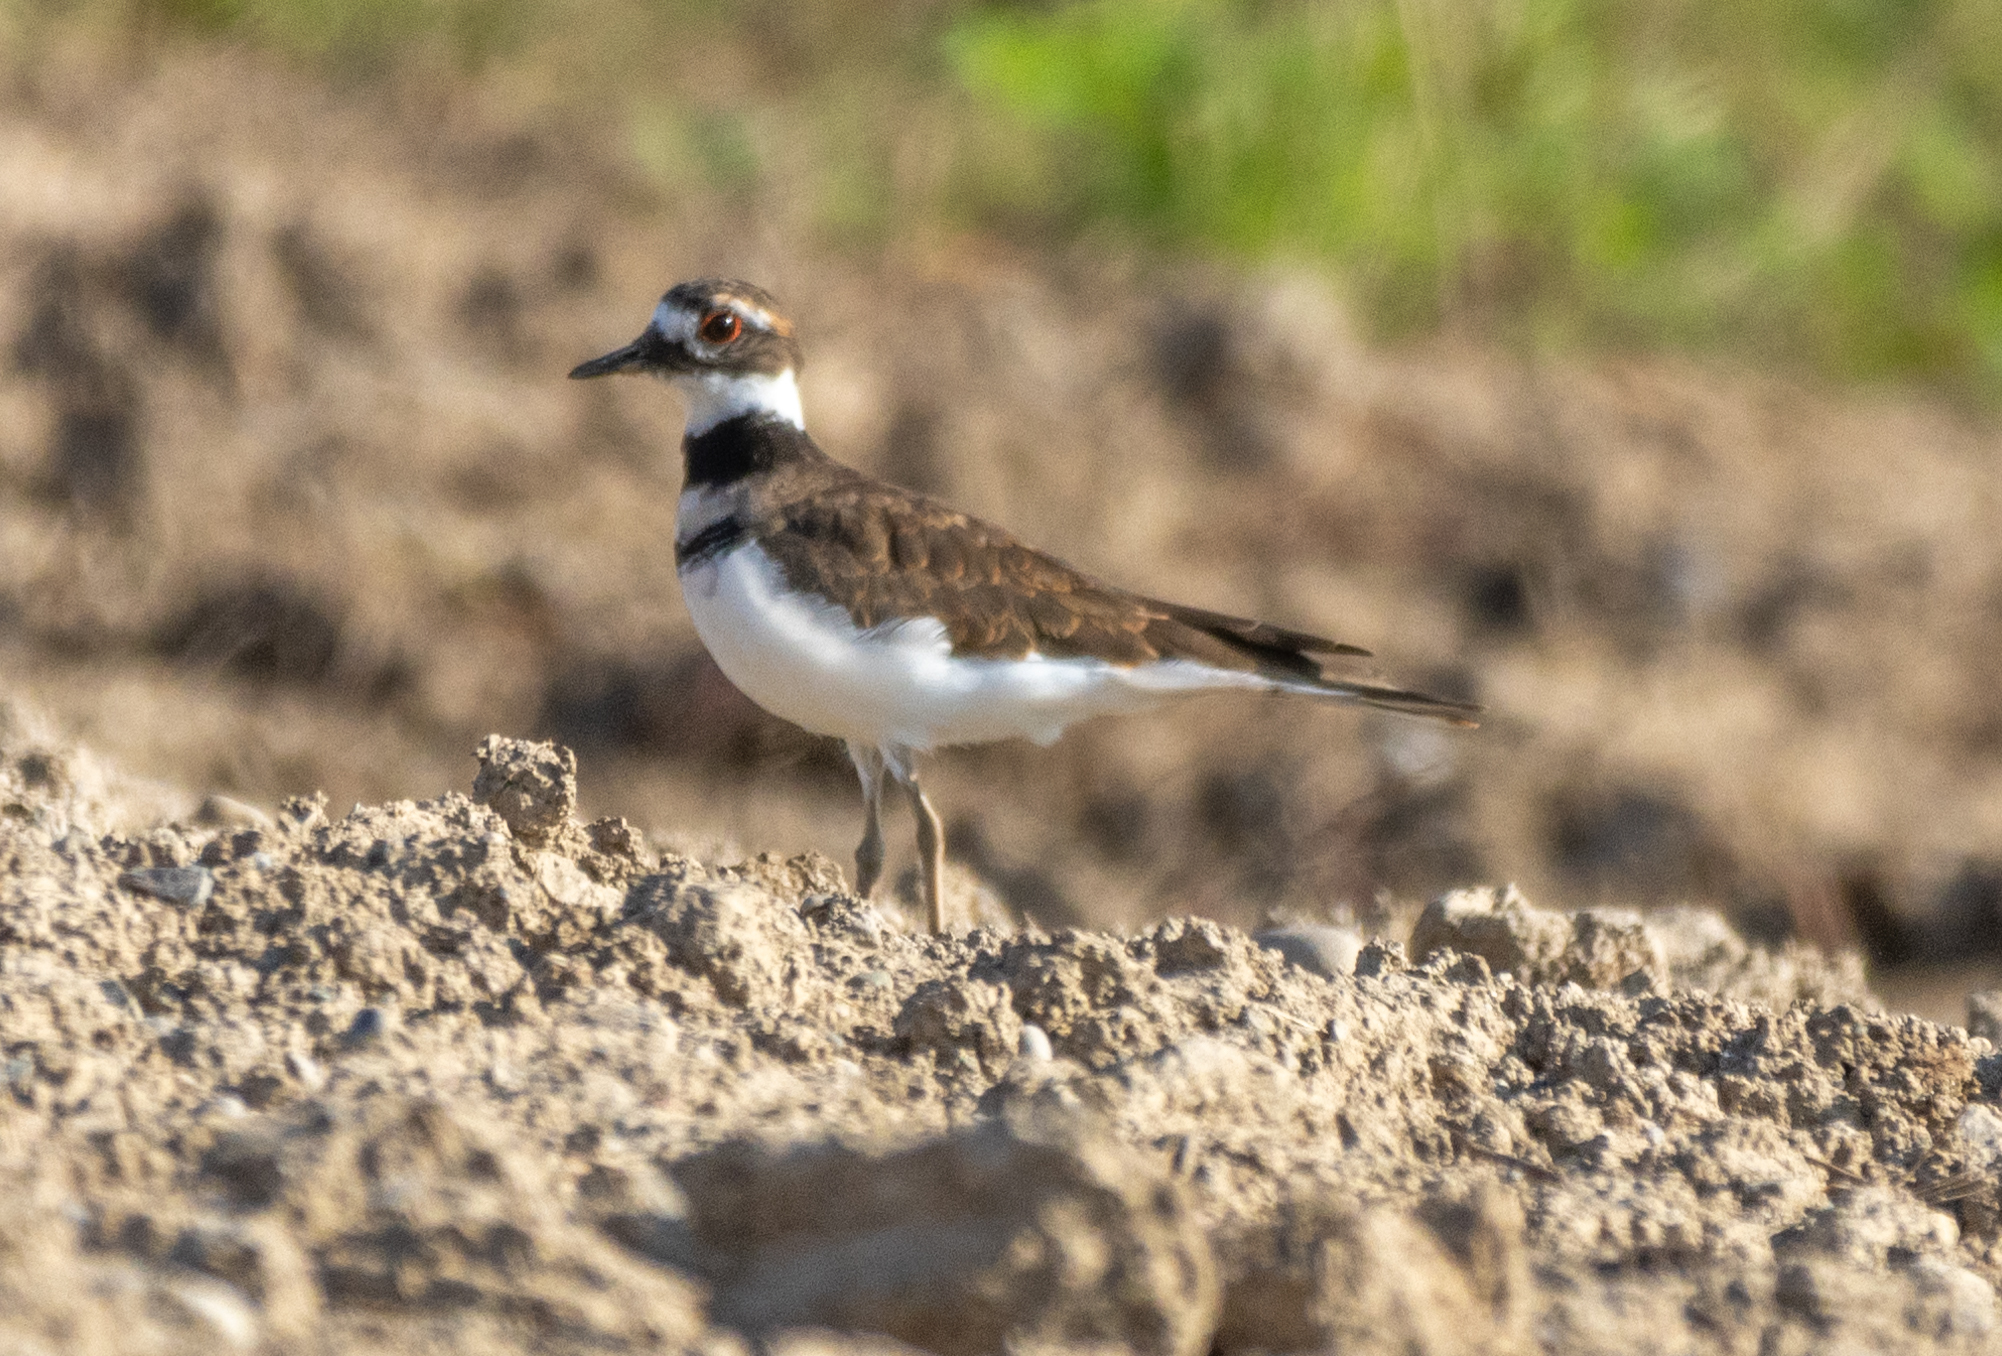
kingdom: Animalia
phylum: Chordata
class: Aves
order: Charadriiformes
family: Charadriidae
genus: Charadrius
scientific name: Charadrius vociferus
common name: Killdeer
